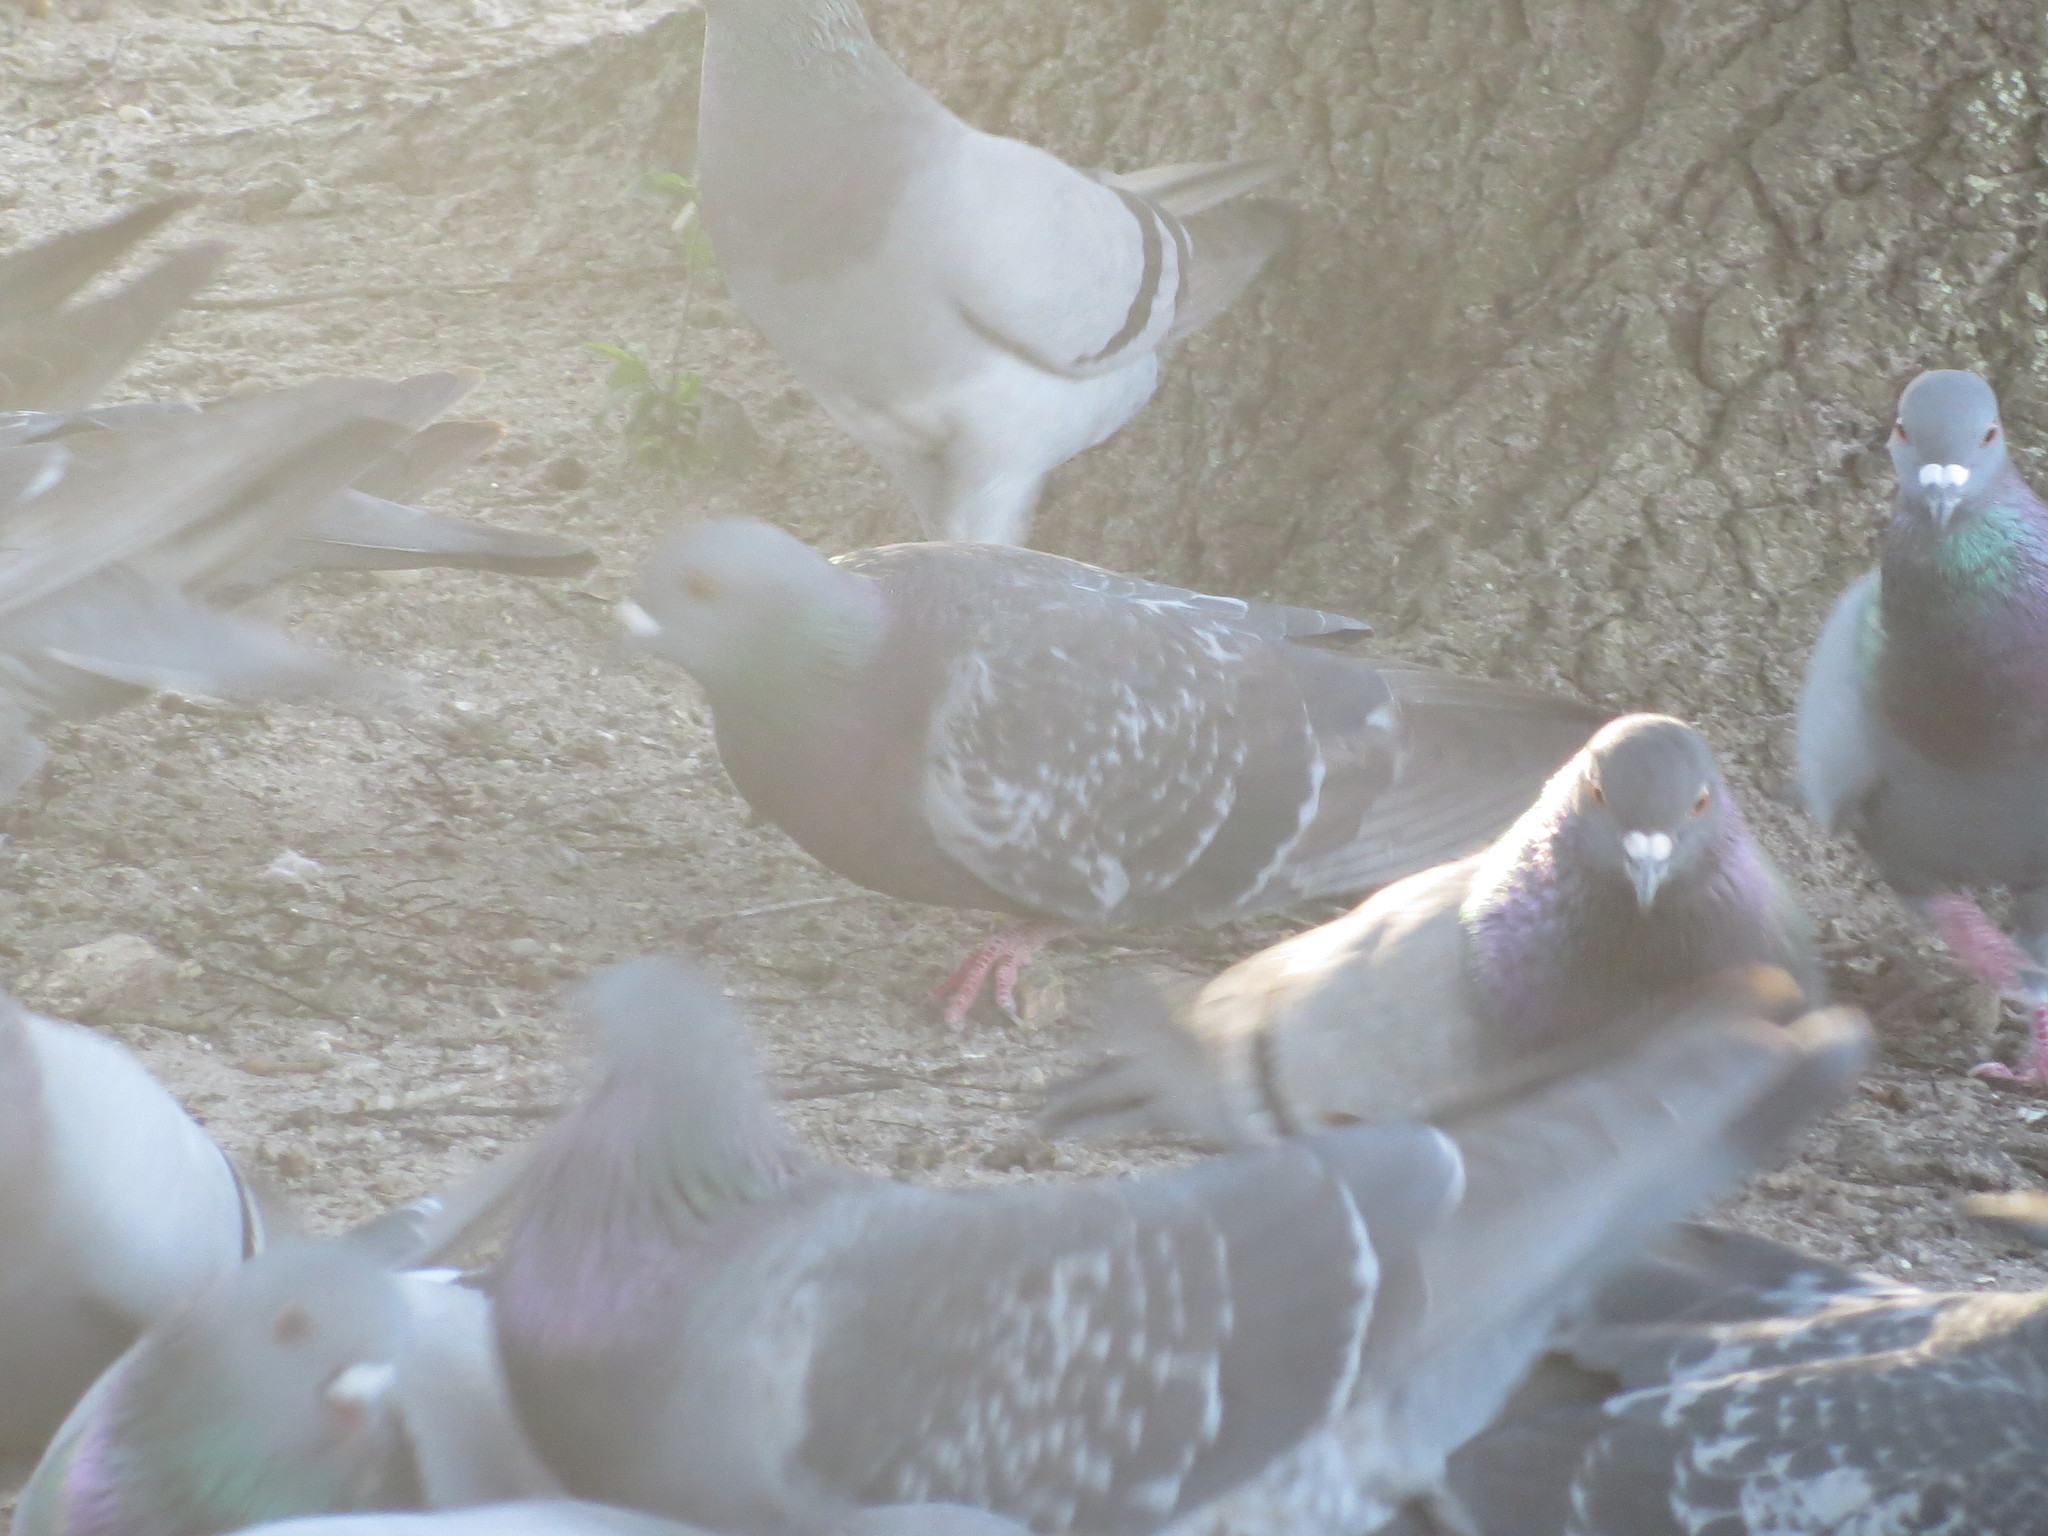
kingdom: Animalia
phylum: Chordata
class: Aves
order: Columbiformes
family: Columbidae
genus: Columba
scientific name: Columba livia
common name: Rock pigeon
